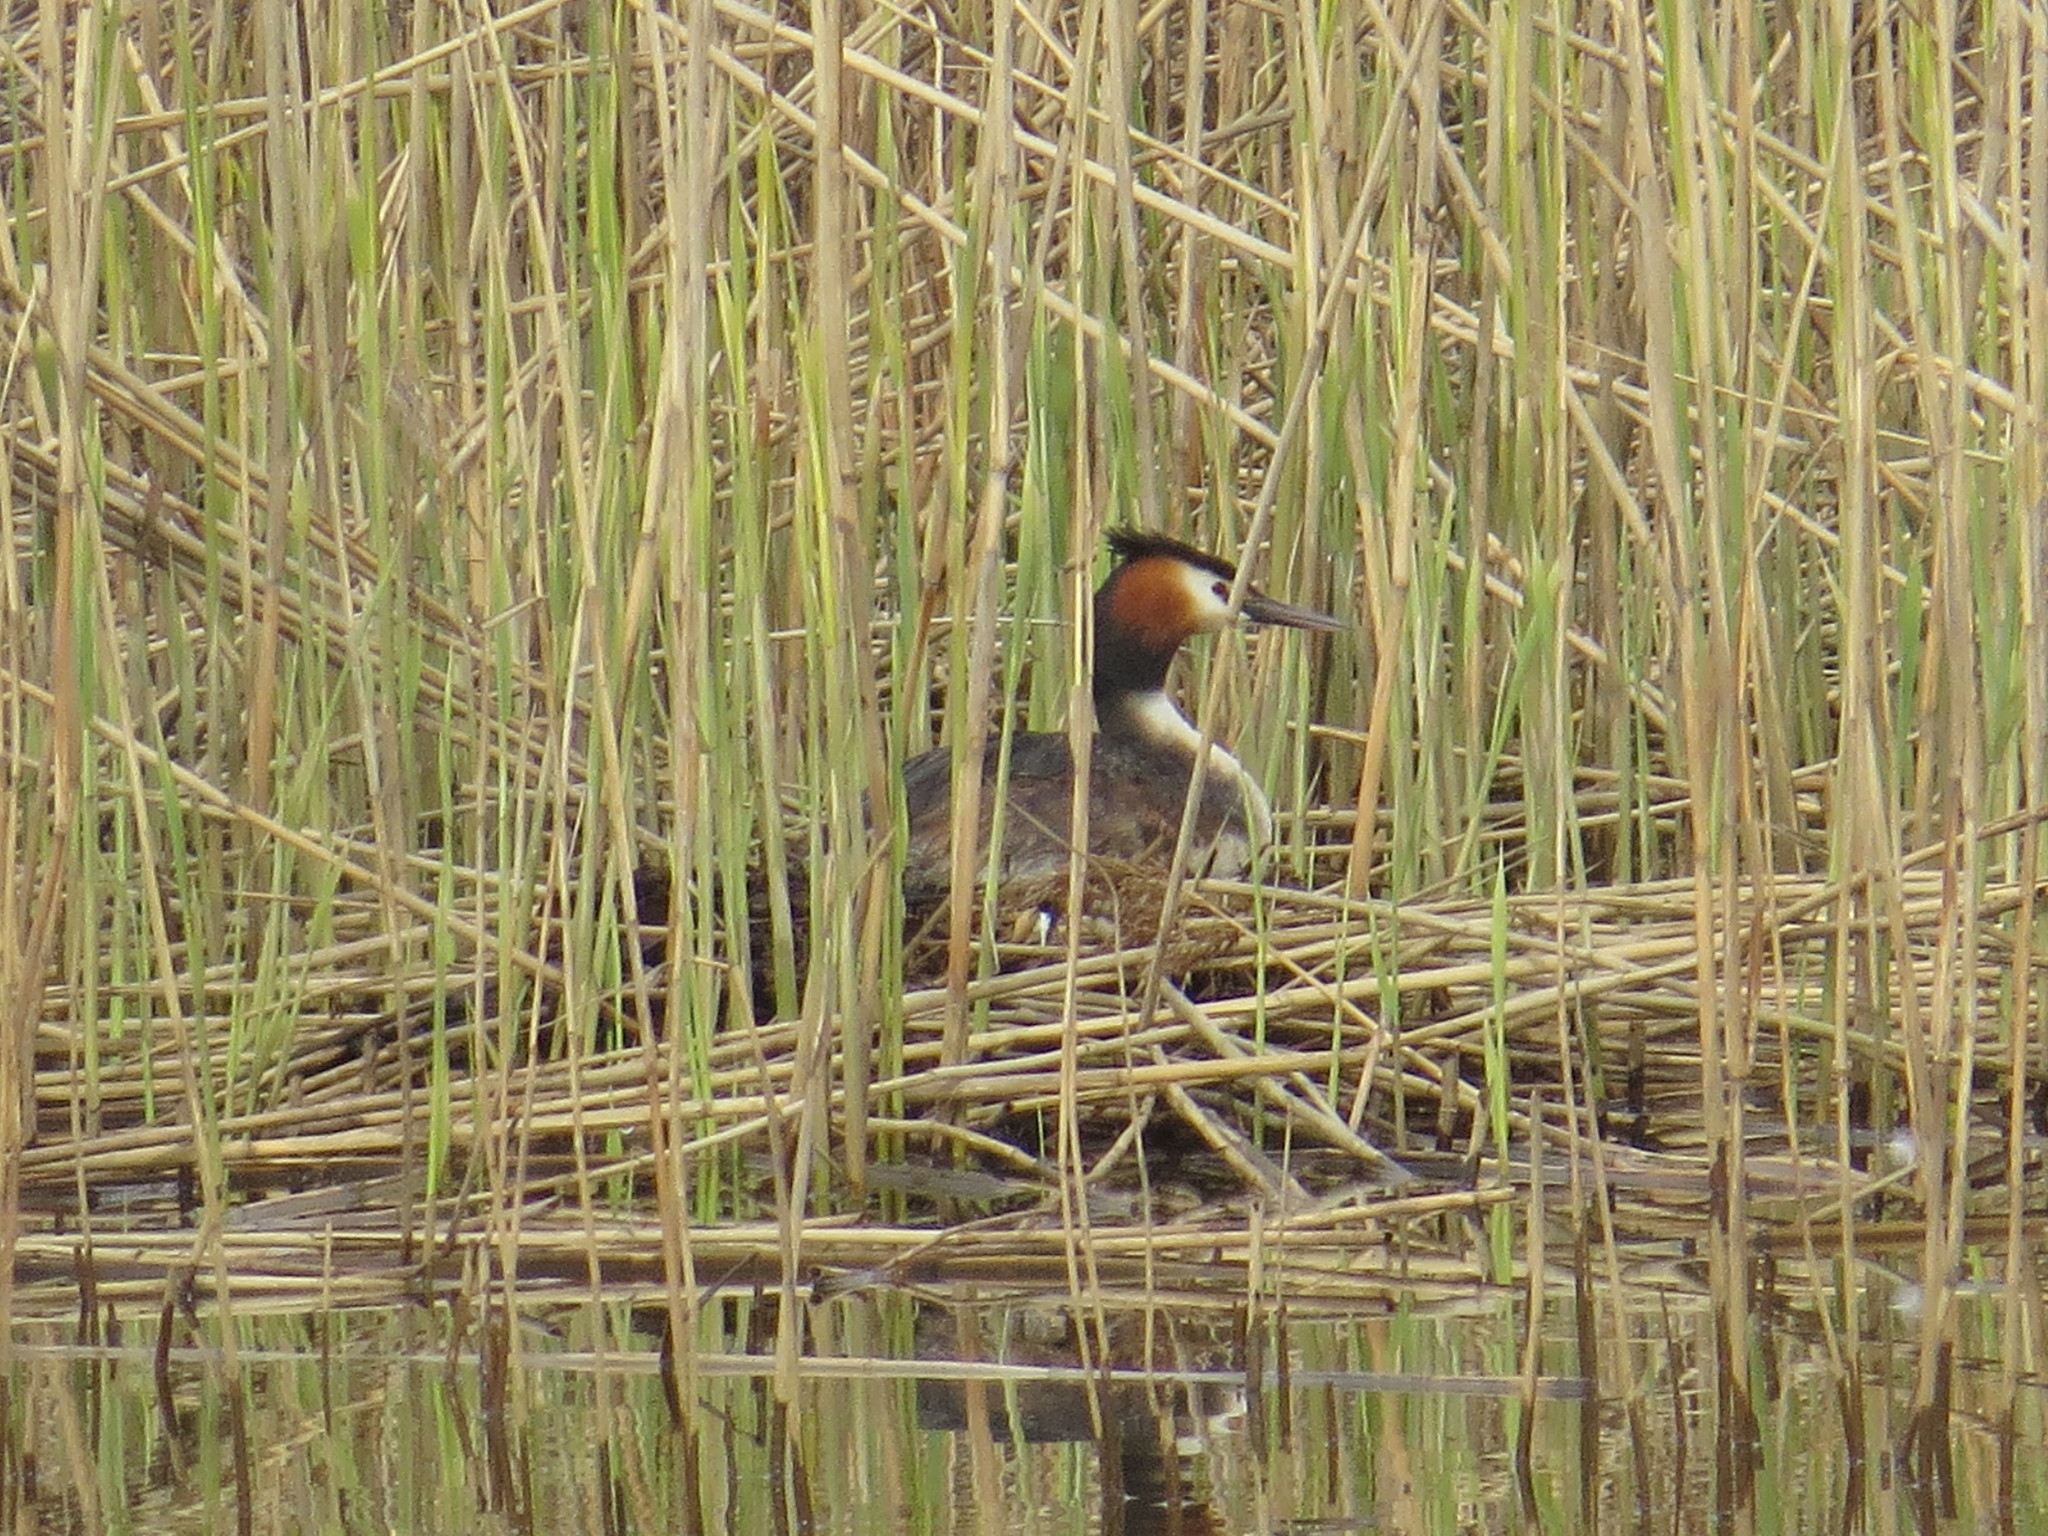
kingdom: Animalia
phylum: Chordata
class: Aves
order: Podicipediformes
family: Podicipedidae
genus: Podiceps
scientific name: Podiceps cristatus
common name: Great crested grebe
